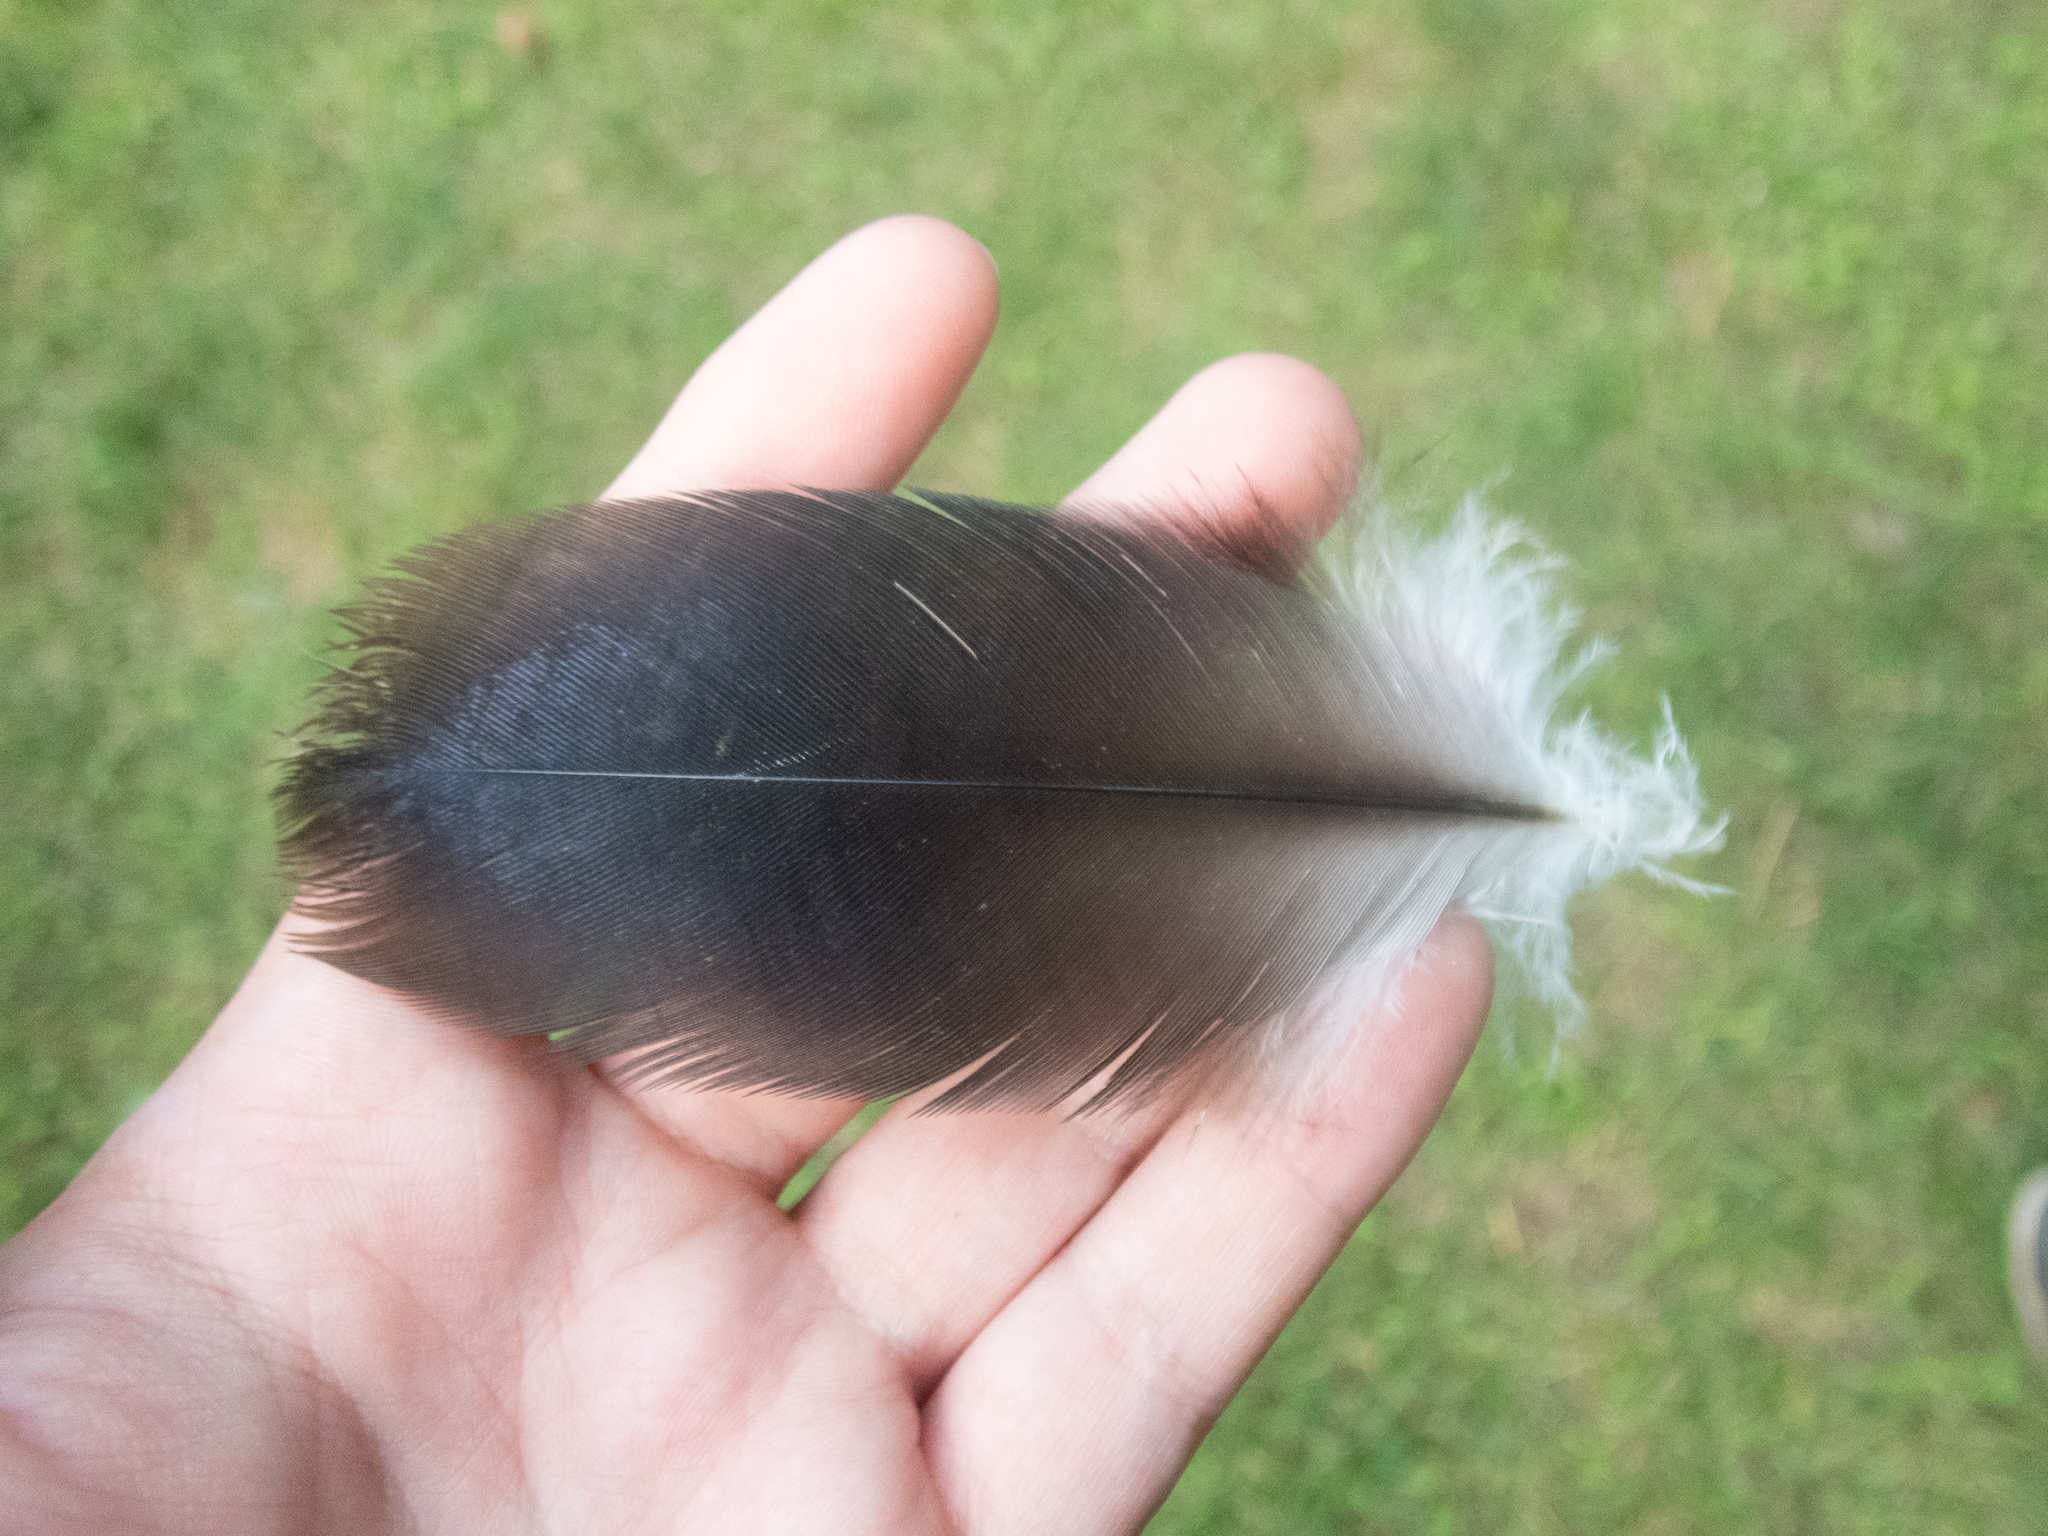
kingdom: Animalia
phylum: Chordata
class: Aves
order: Accipitriformes
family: Cathartidae
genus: Cathartes
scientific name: Cathartes aura
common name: Turkey vulture
